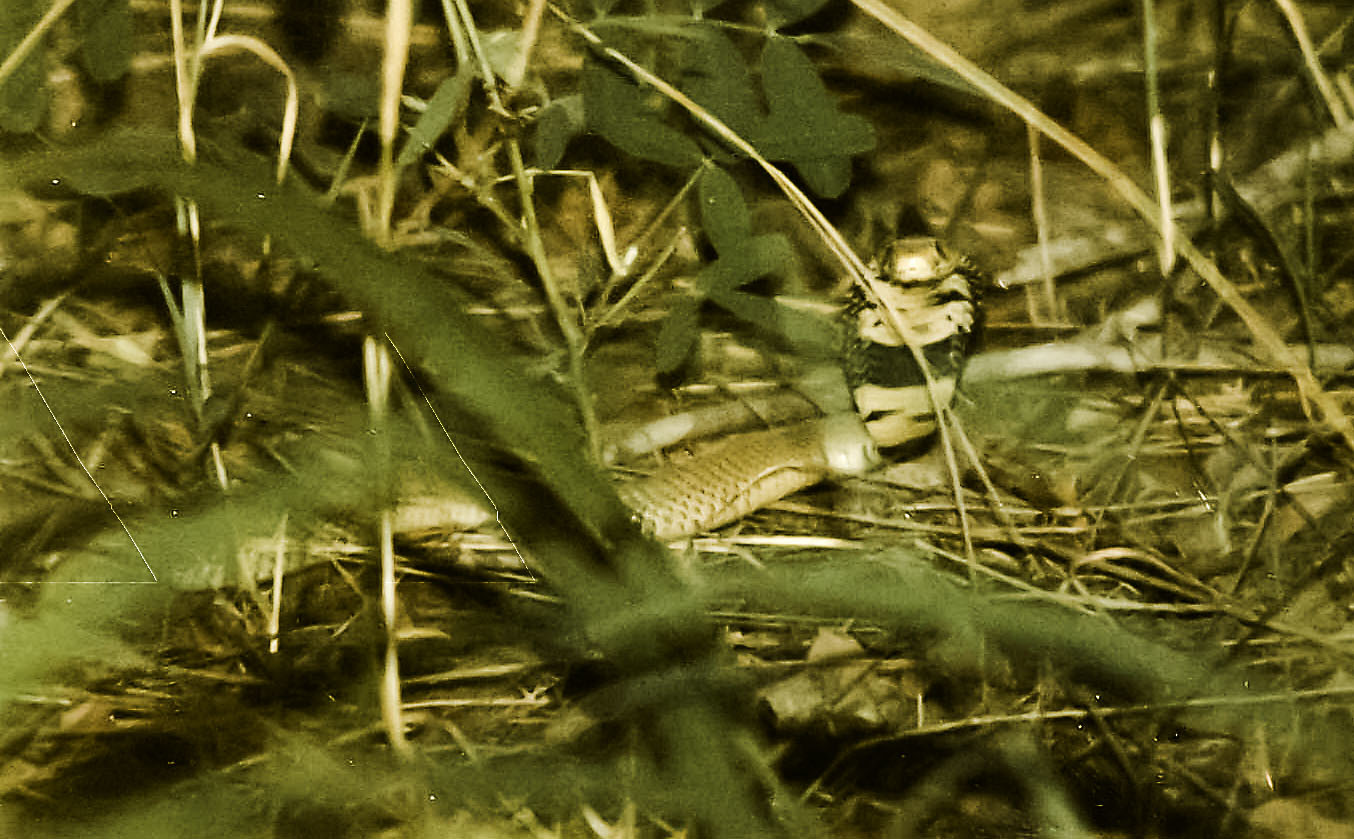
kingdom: Animalia
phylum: Chordata
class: Squamata
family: Elapidae
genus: Naja
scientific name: Naja mossambica
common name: Mozambique spitting cobra
